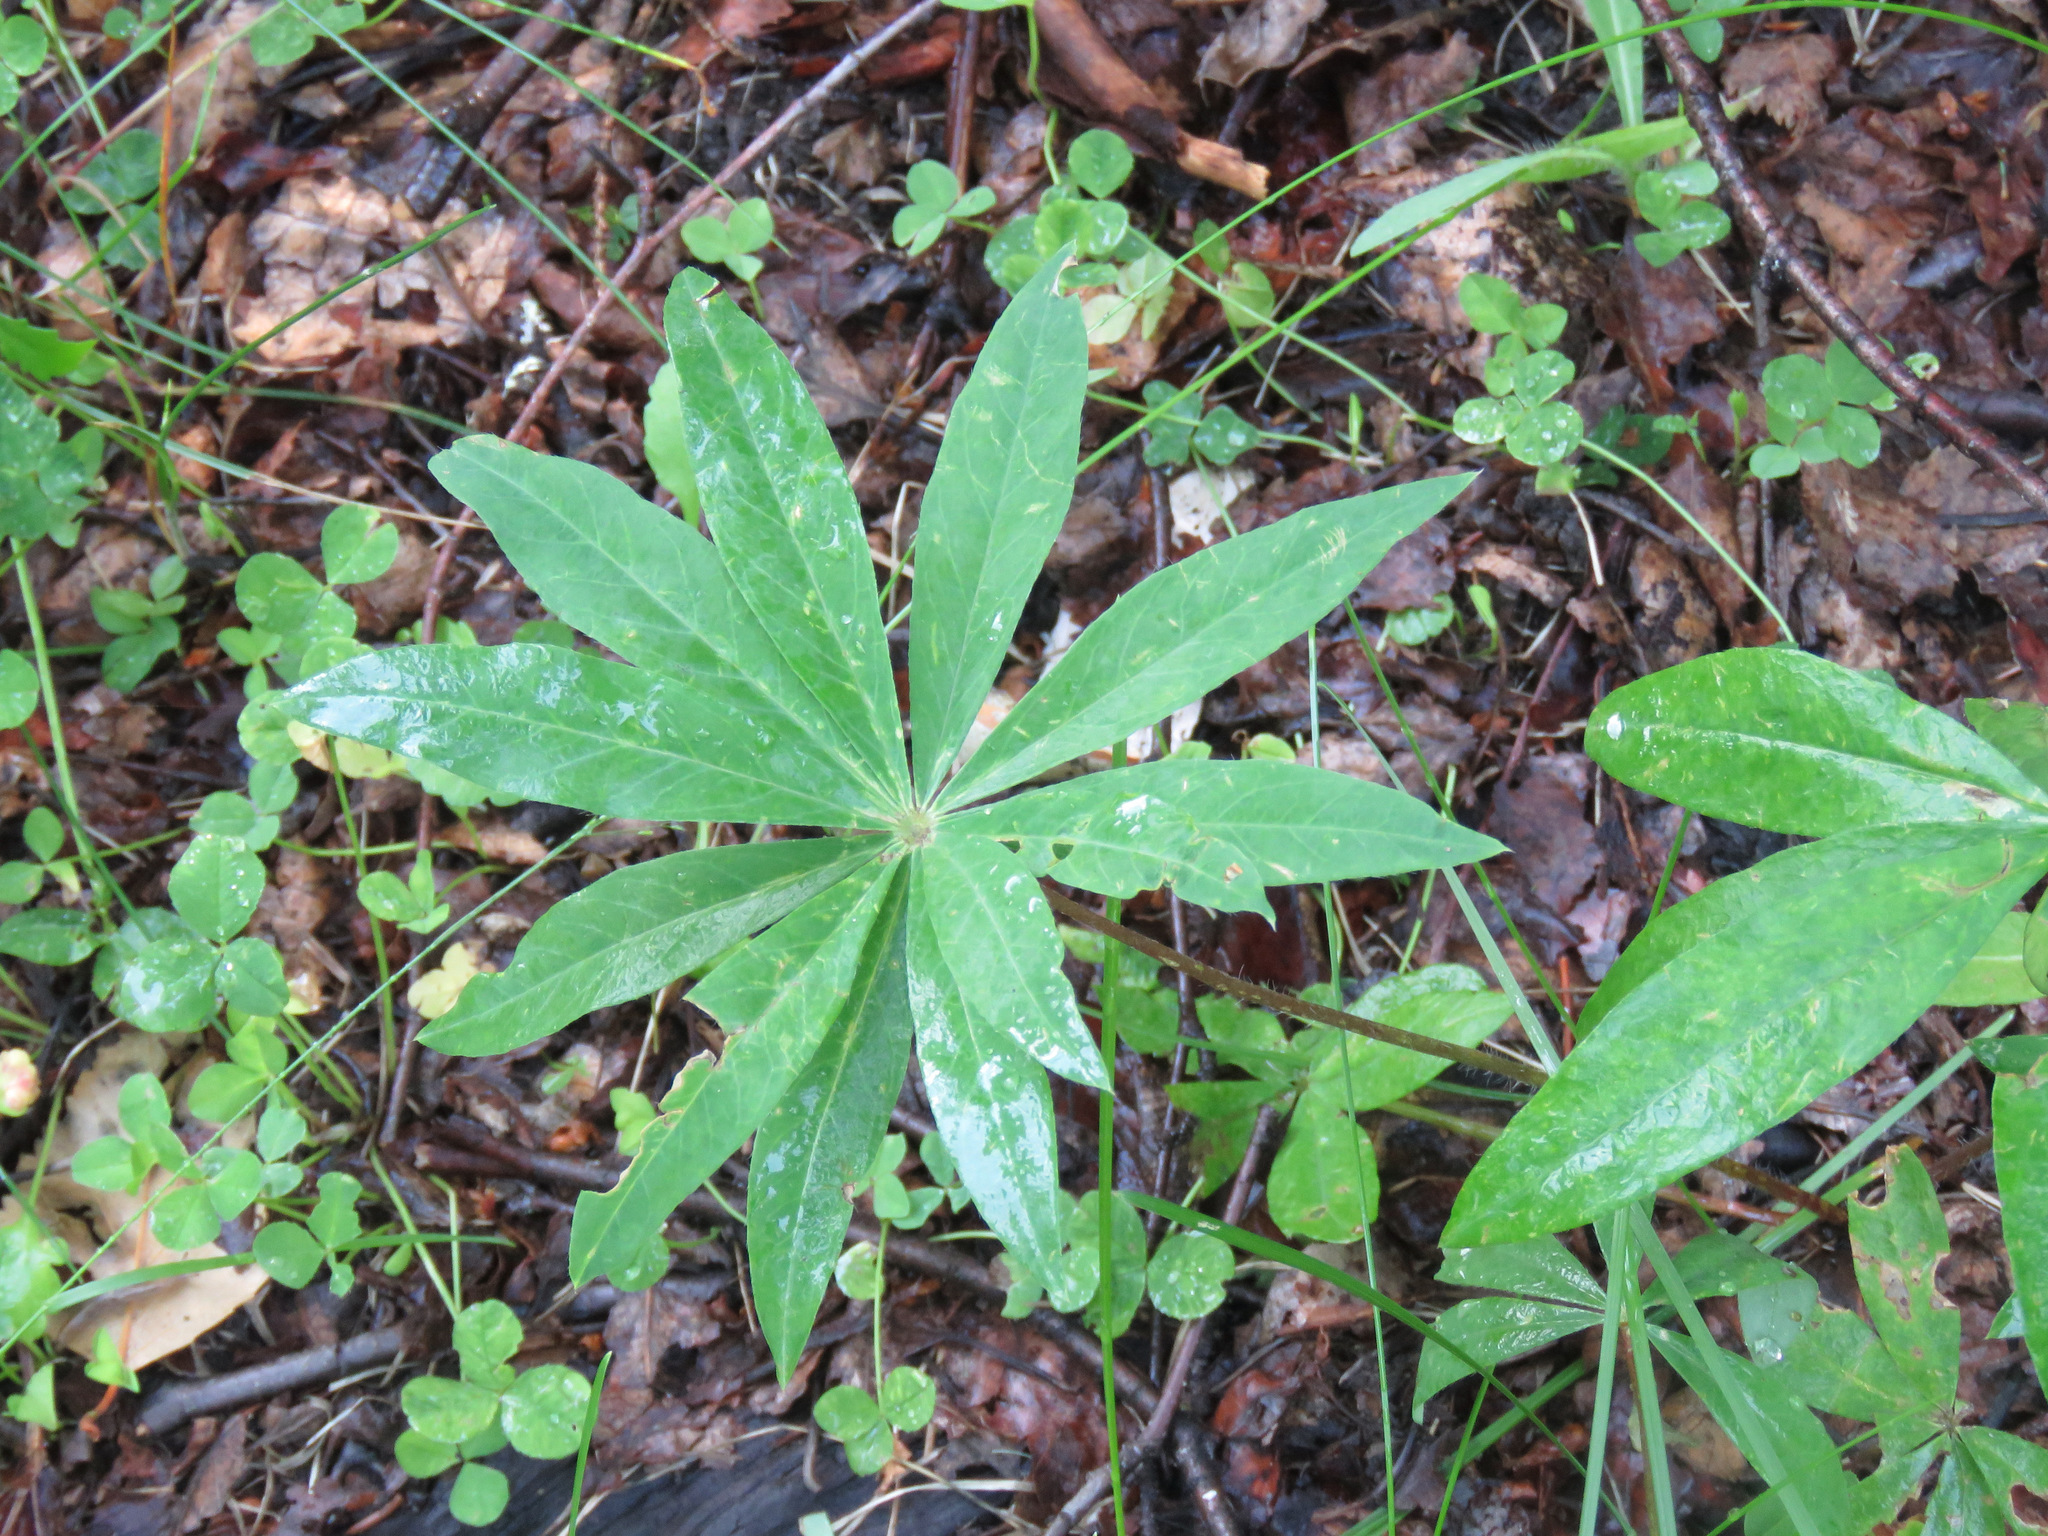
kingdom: Plantae
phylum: Tracheophyta
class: Magnoliopsida
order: Fabales
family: Fabaceae
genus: Lupinus
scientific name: Lupinus polyphyllus
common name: Garden lupin
